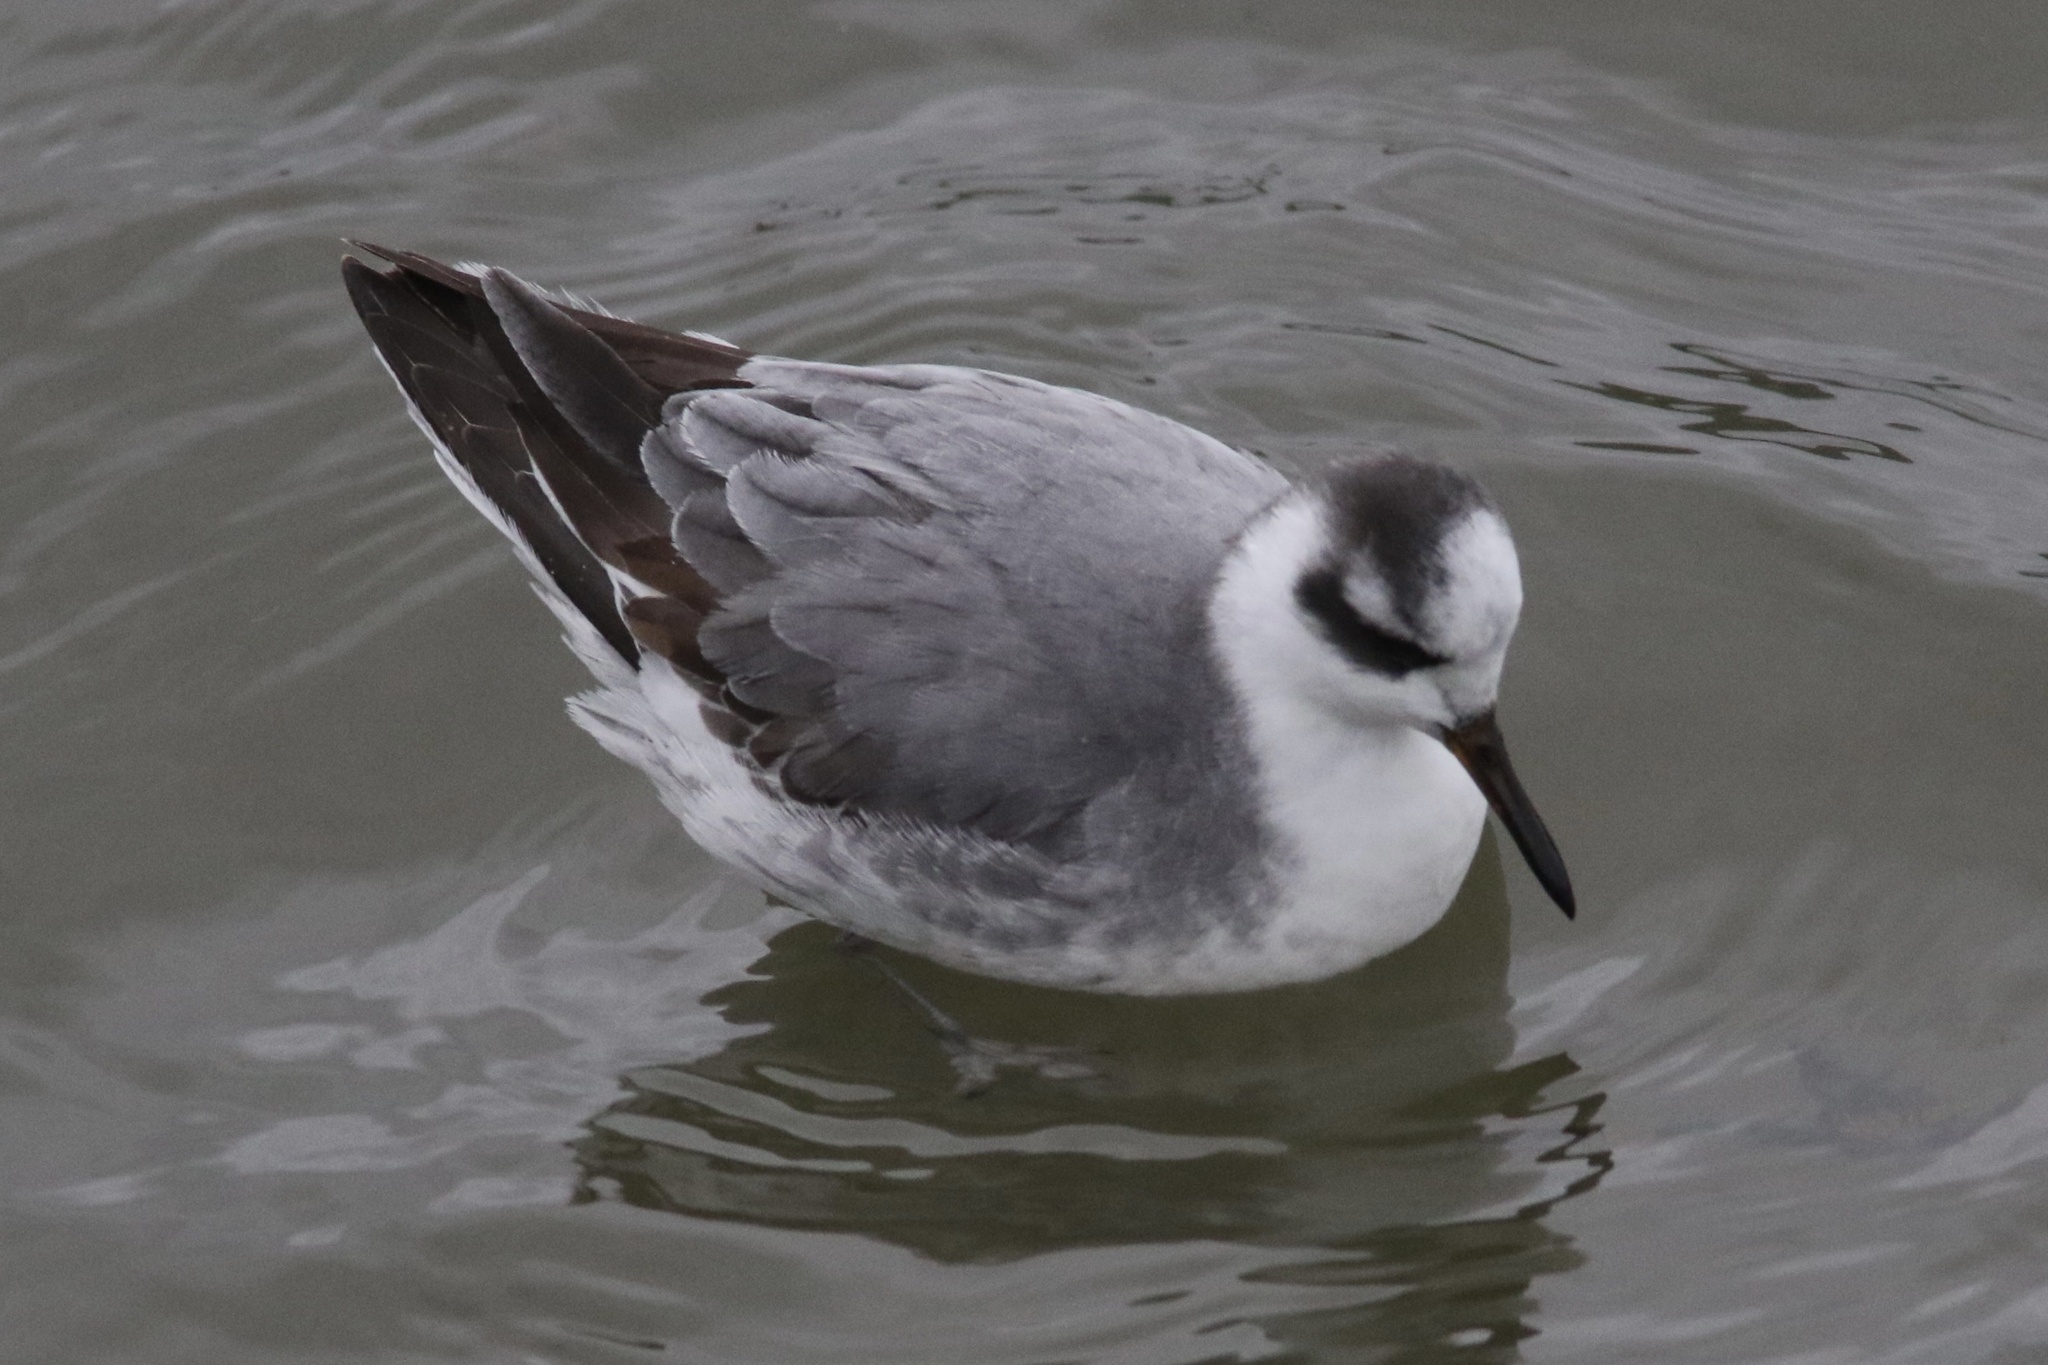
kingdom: Animalia
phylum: Chordata
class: Aves
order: Charadriiformes
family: Scolopacidae
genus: Phalaropus
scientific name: Phalaropus fulicarius
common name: Red phalarope
